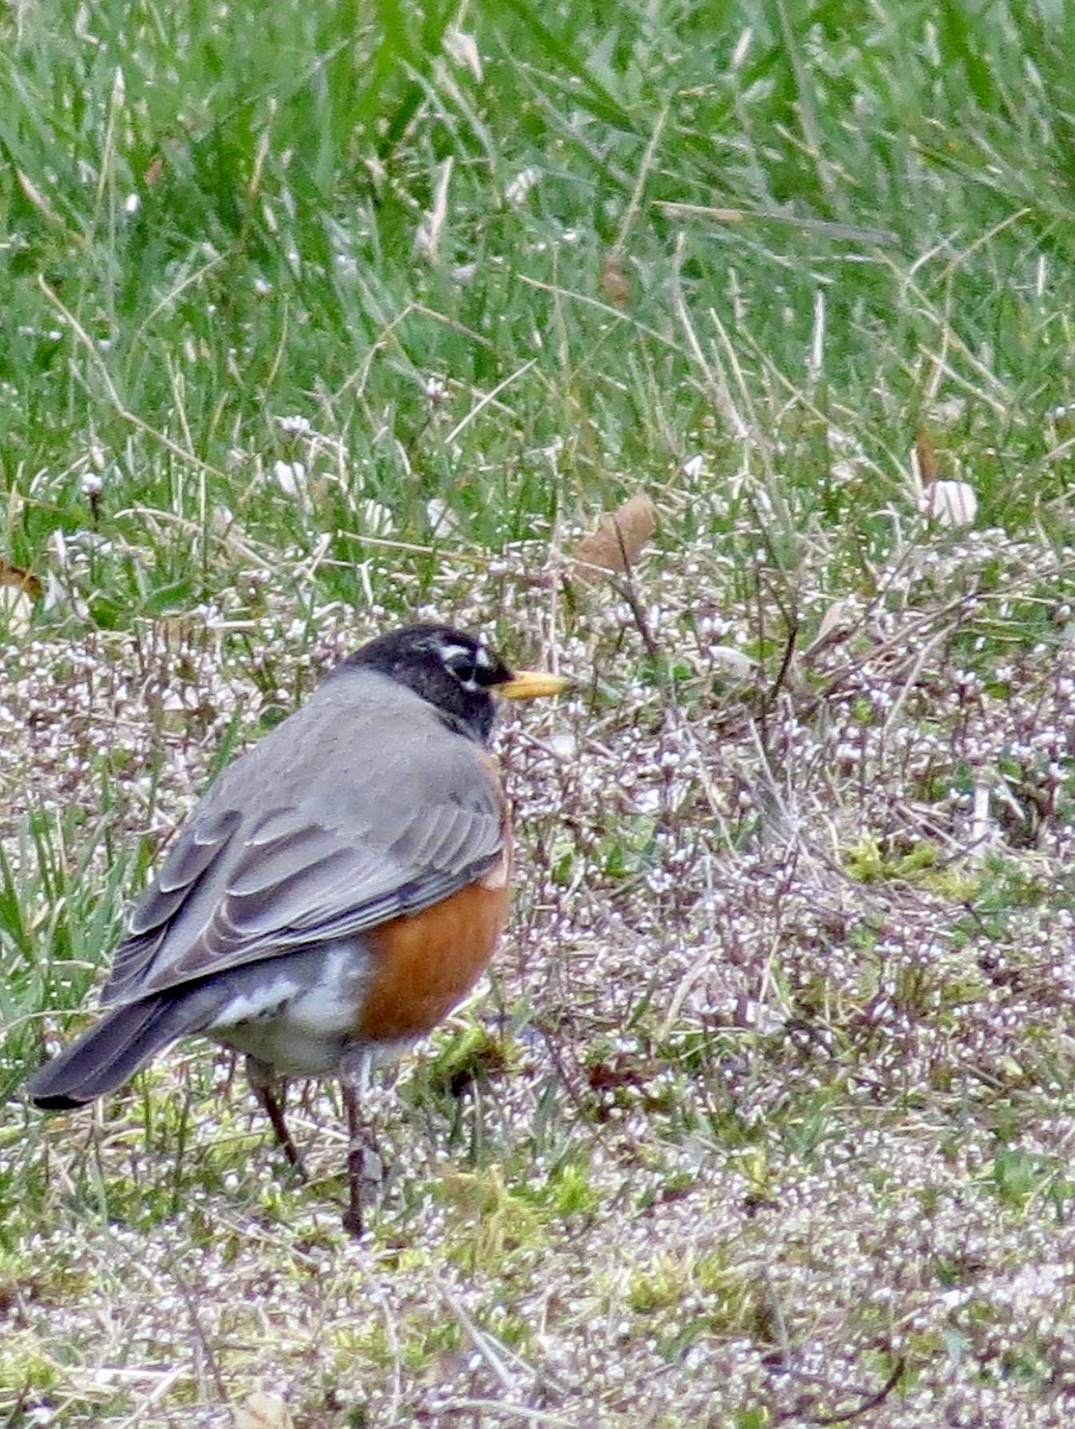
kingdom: Animalia
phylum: Chordata
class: Aves
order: Passeriformes
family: Turdidae
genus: Turdus
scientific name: Turdus migratorius
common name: American robin
